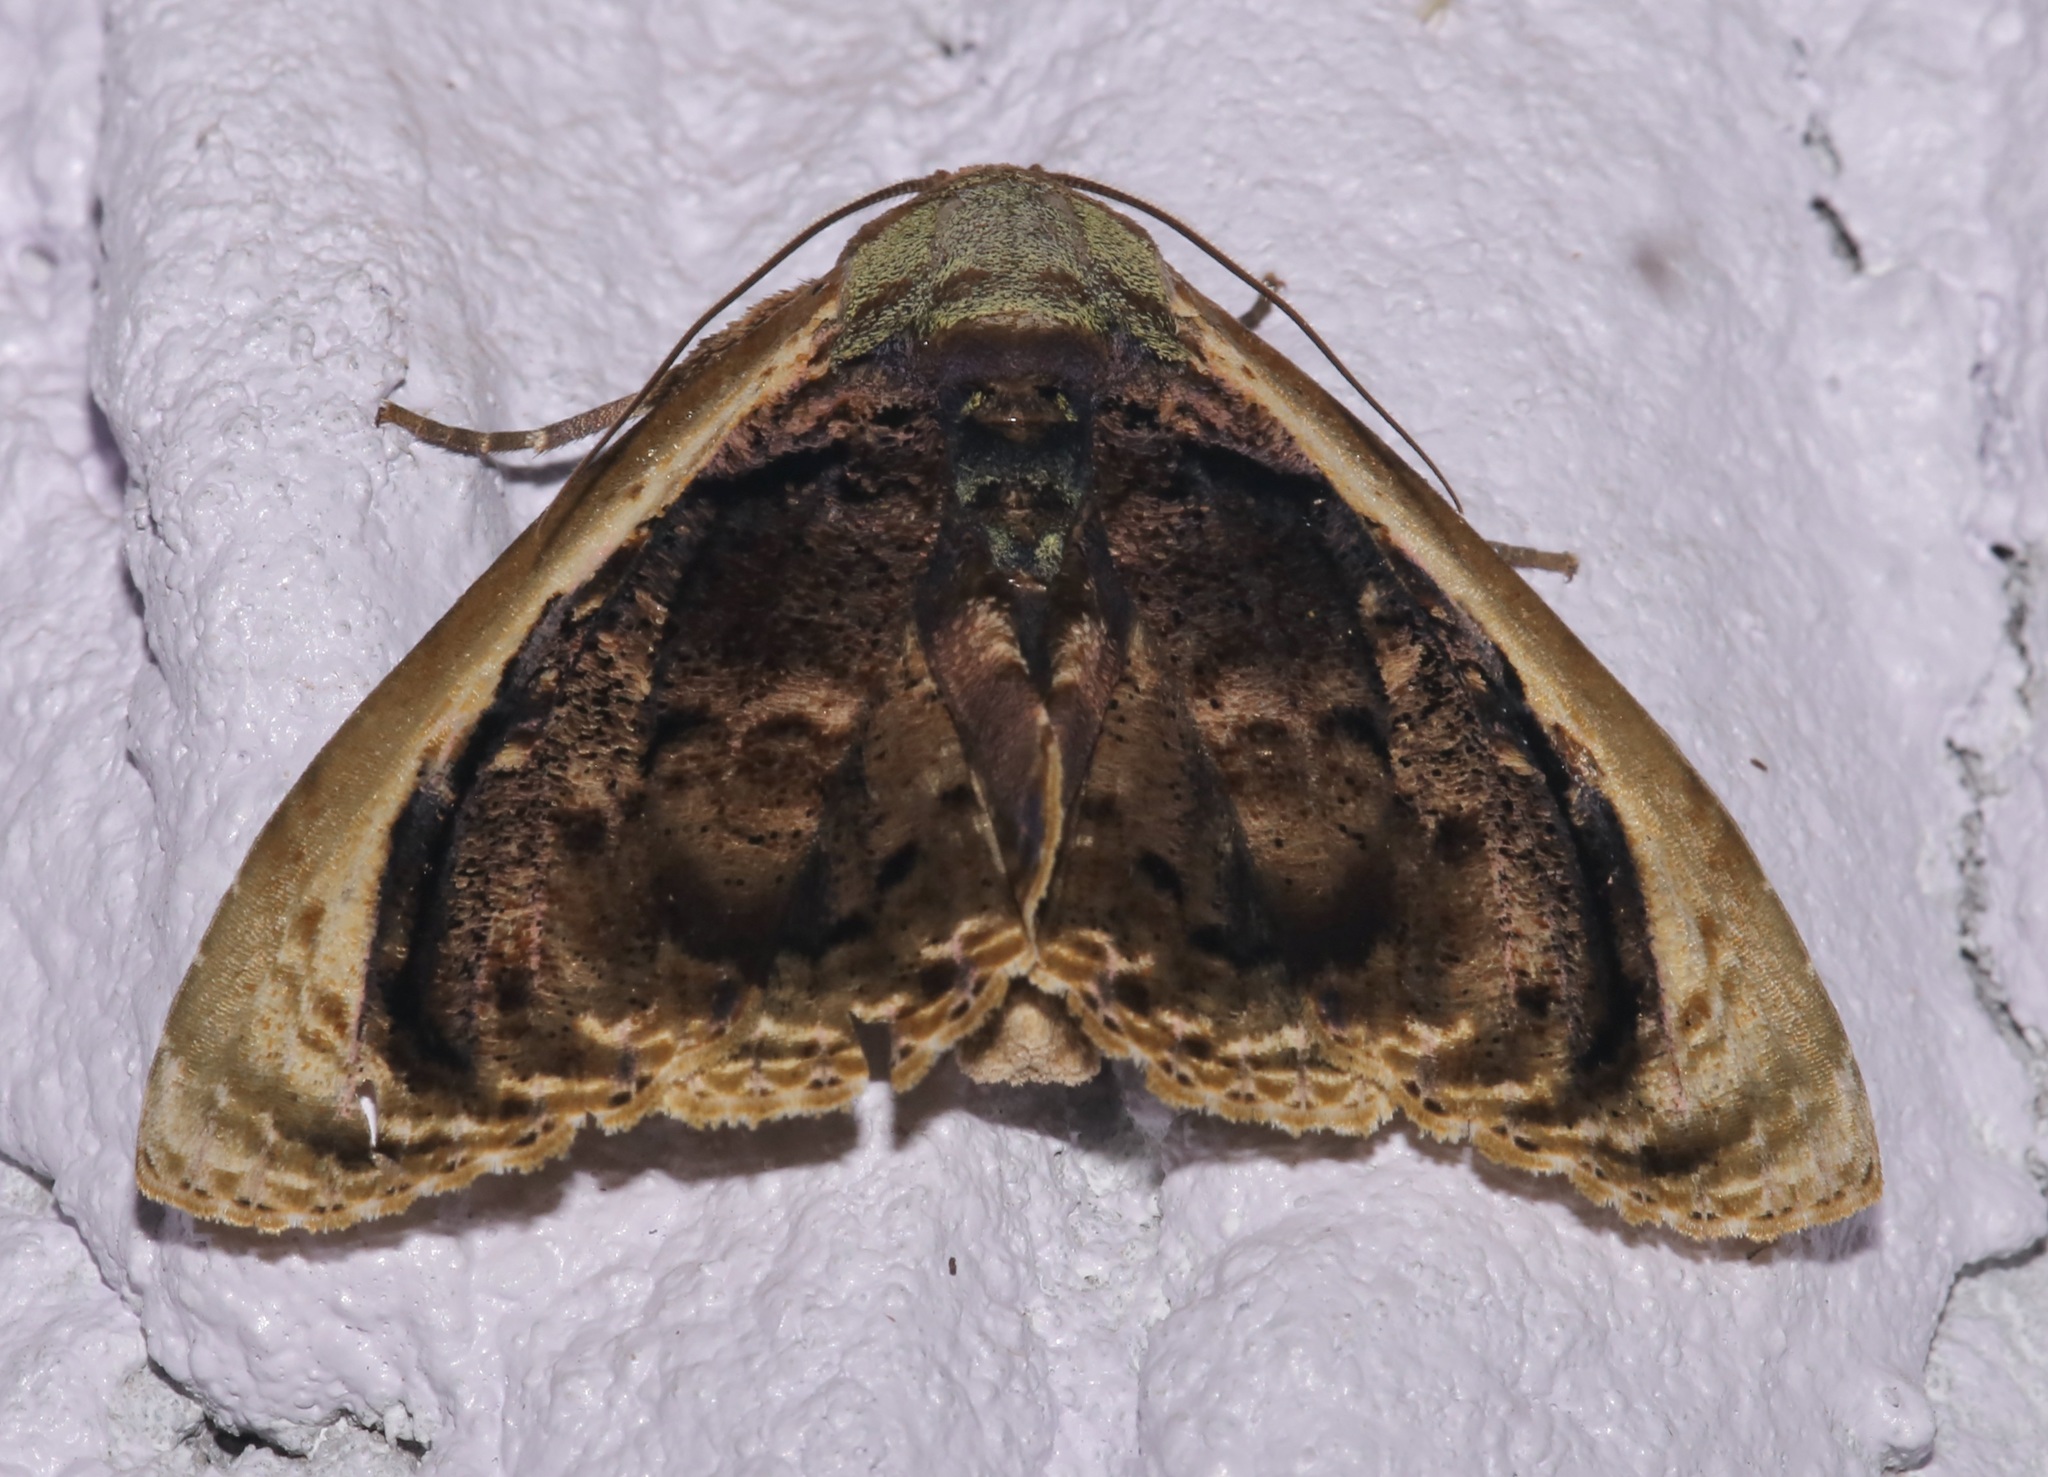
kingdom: Animalia
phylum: Arthropoda
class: Insecta
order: Lepidoptera
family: Erebidae
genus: Lepidodes
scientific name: Lepidodes limbulata
